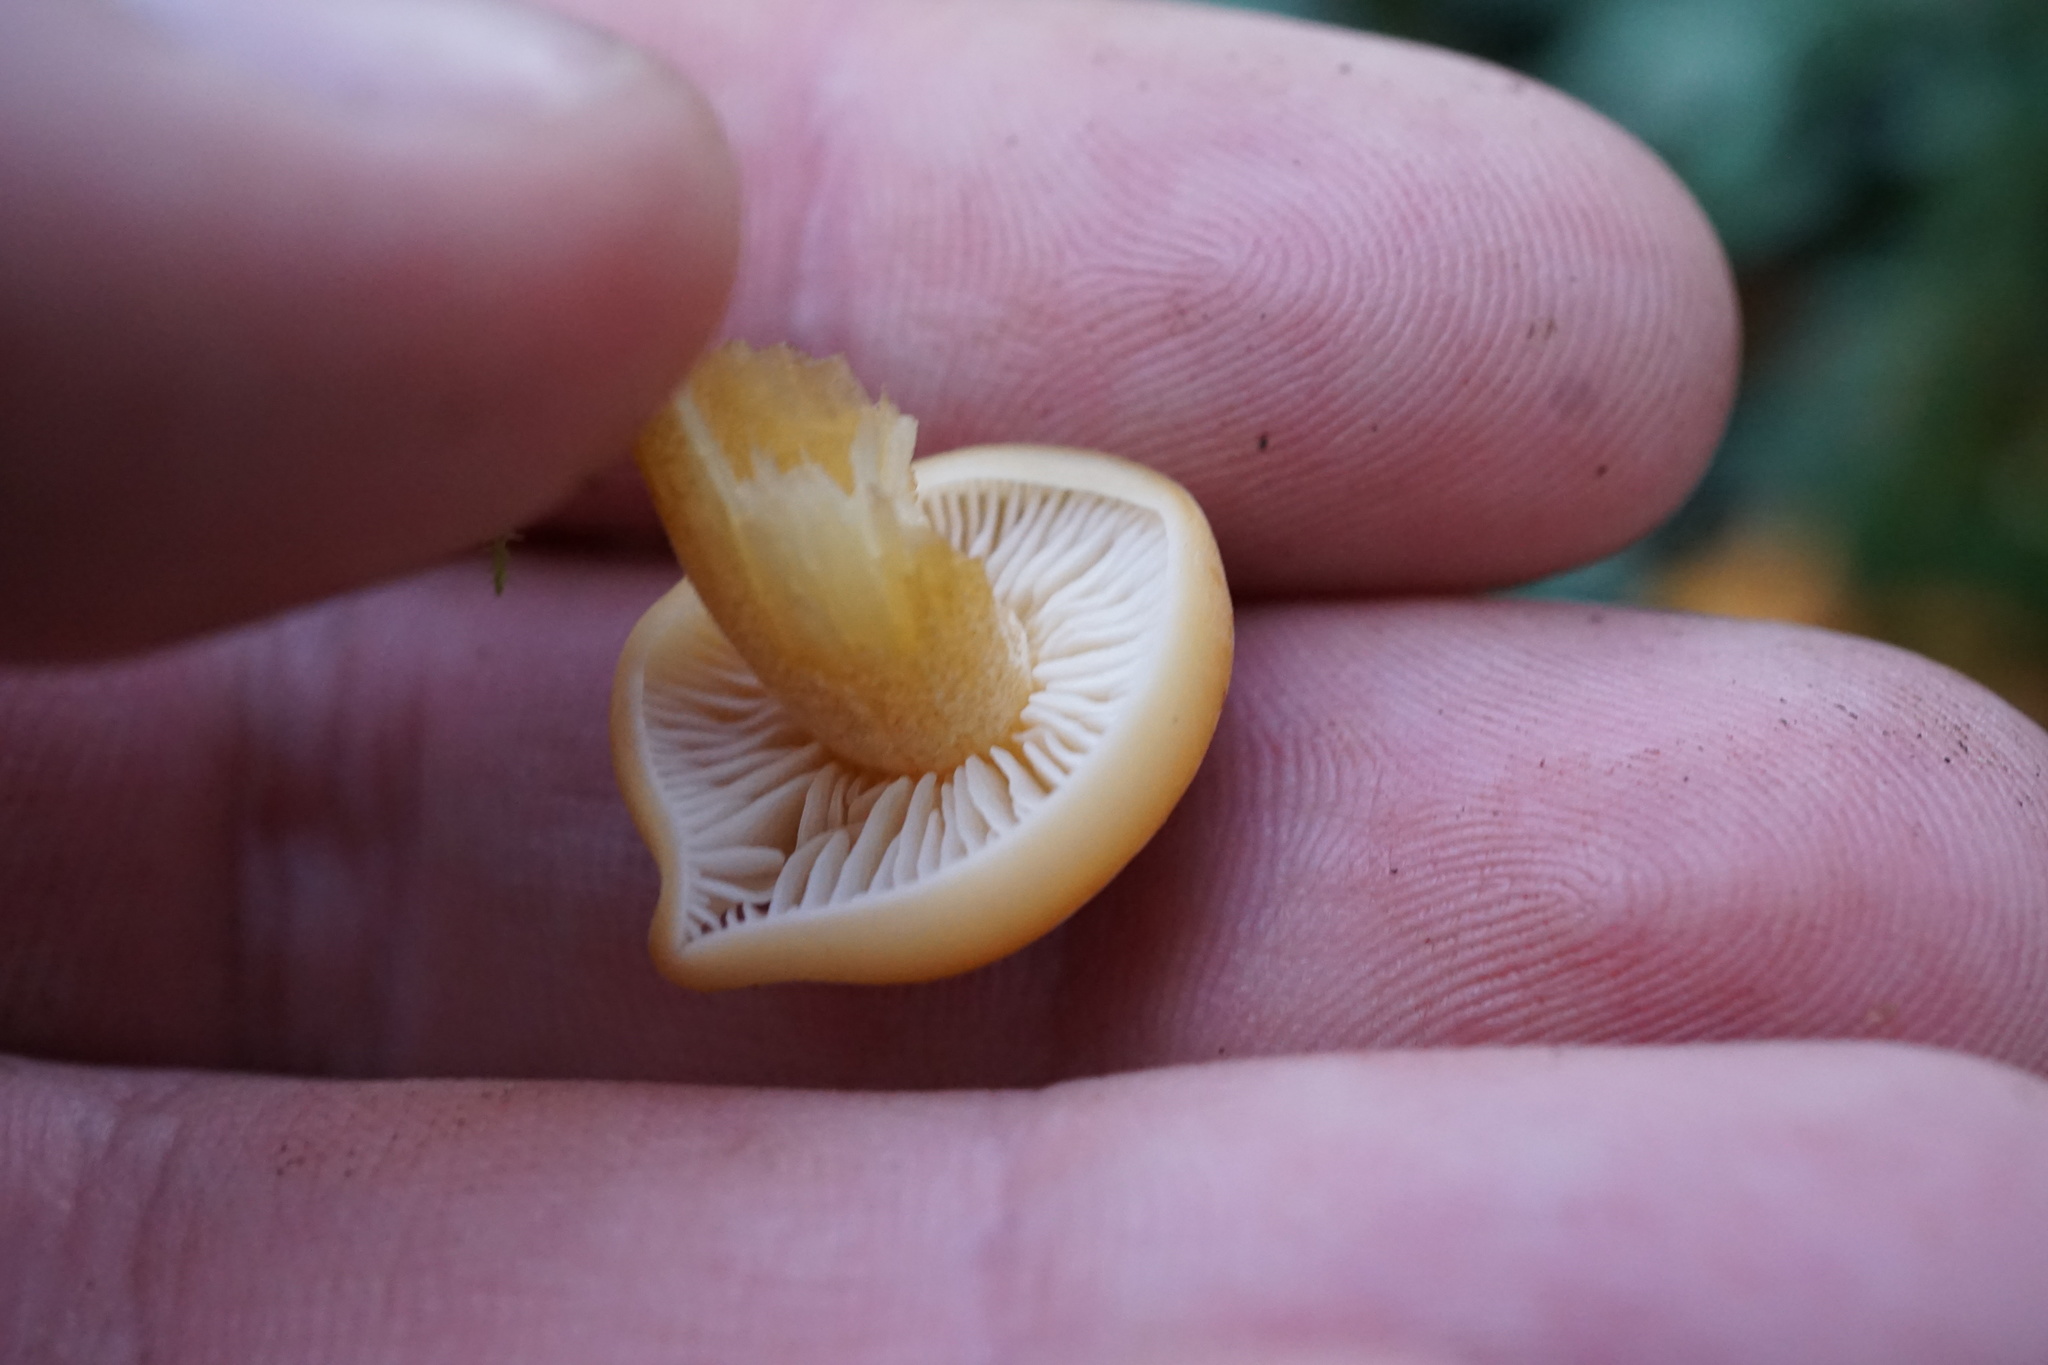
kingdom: Fungi
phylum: Basidiomycota
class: Agaricomycetes
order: Agaricales
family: Physalacriaceae
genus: Flammulina
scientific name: Flammulina
